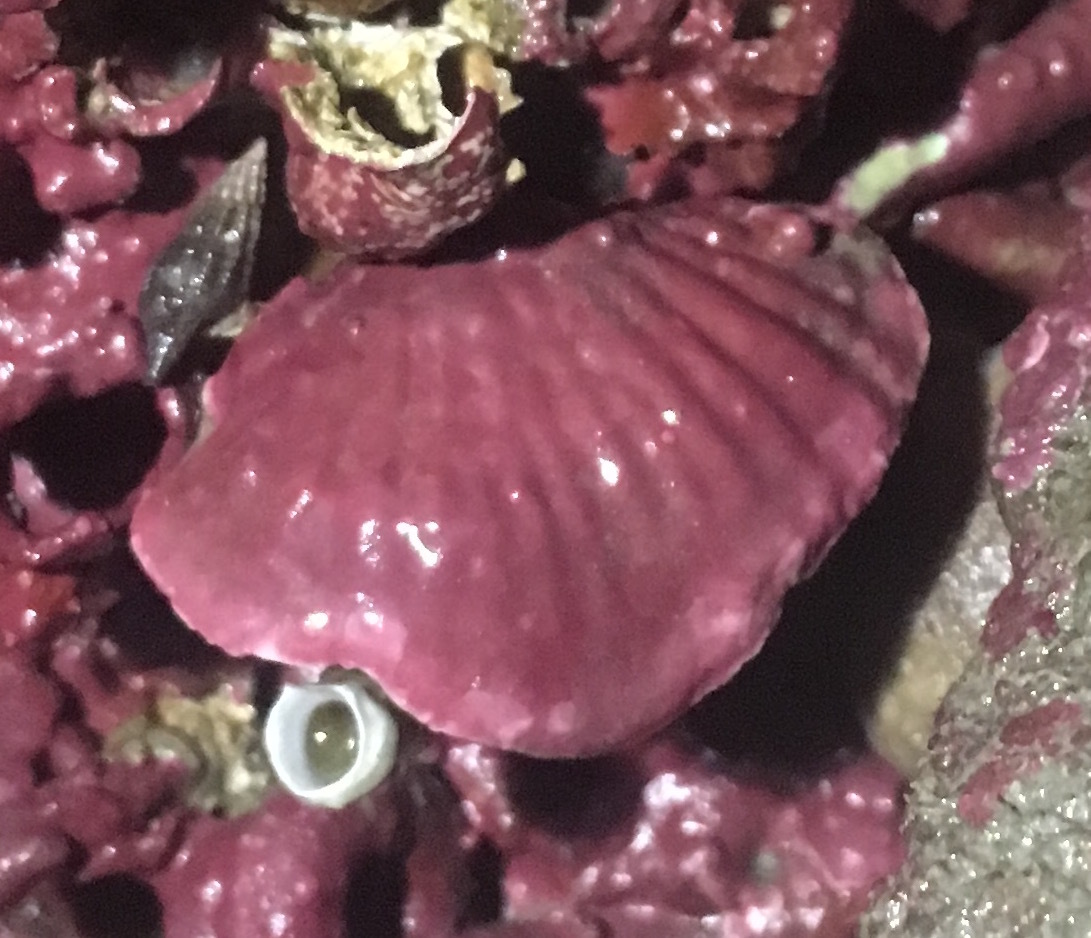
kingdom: Animalia
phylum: Brachiopoda
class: Rhynchonellata
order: Terebratulida
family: Terebrataliidae
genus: Terebratalia
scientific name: Terebratalia transversa
